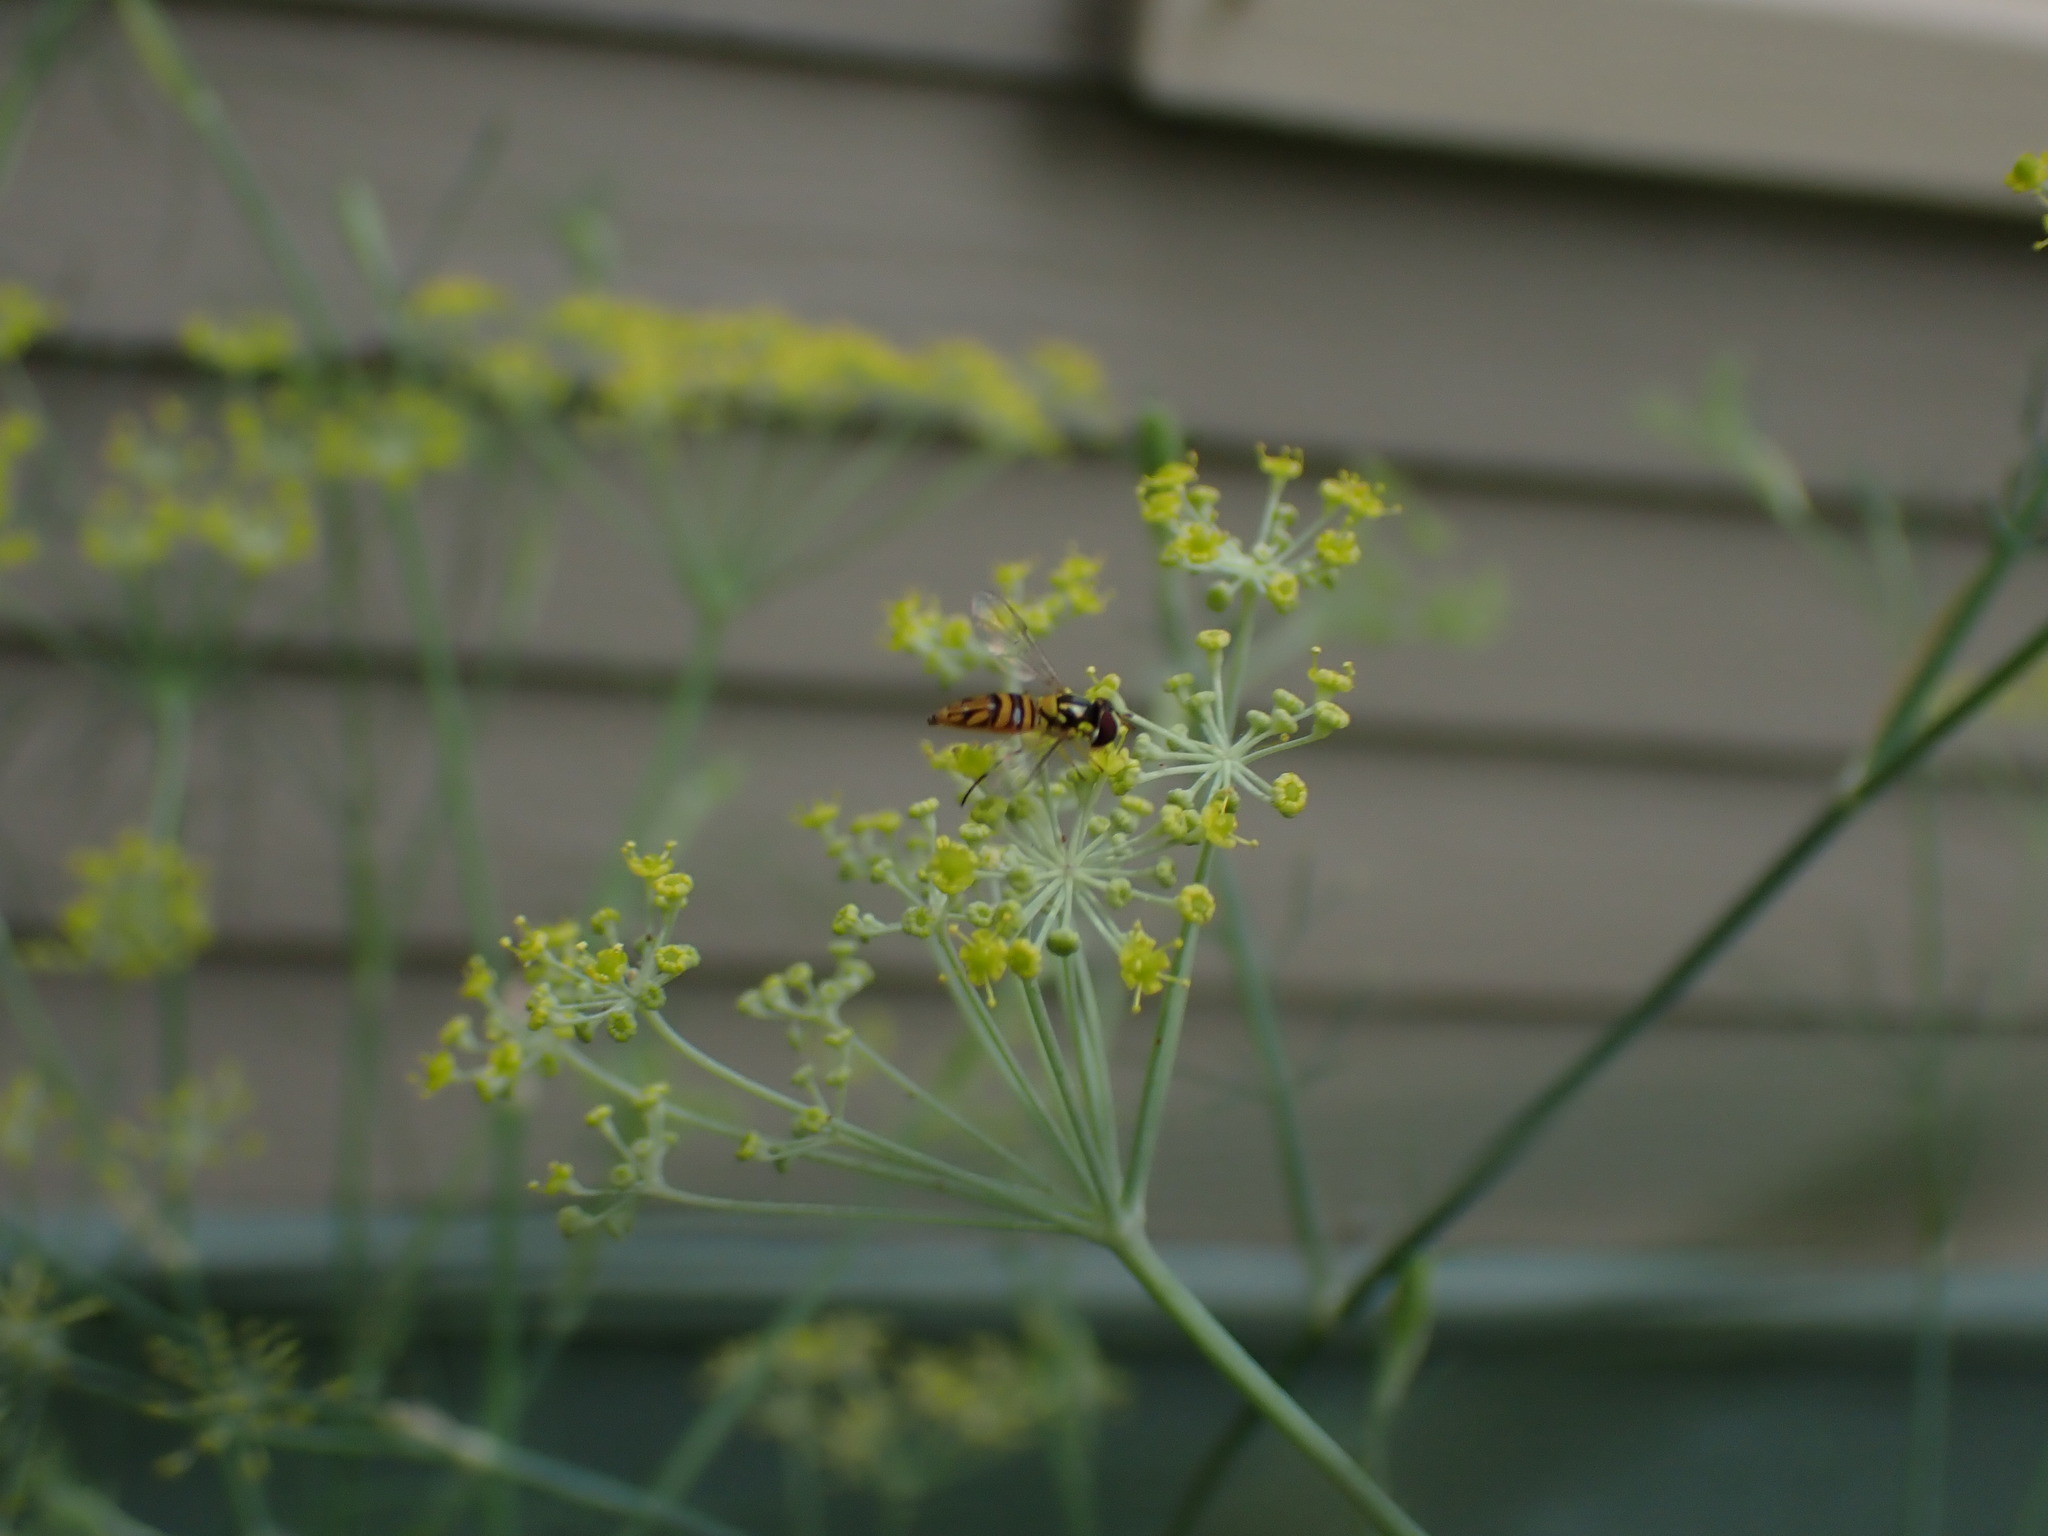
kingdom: Animalia
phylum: Arthropoda
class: Insecta
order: Diptera
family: Syrphidae
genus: Allograpta
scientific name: Allograpta obliqua
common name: Common oblique syrphid
